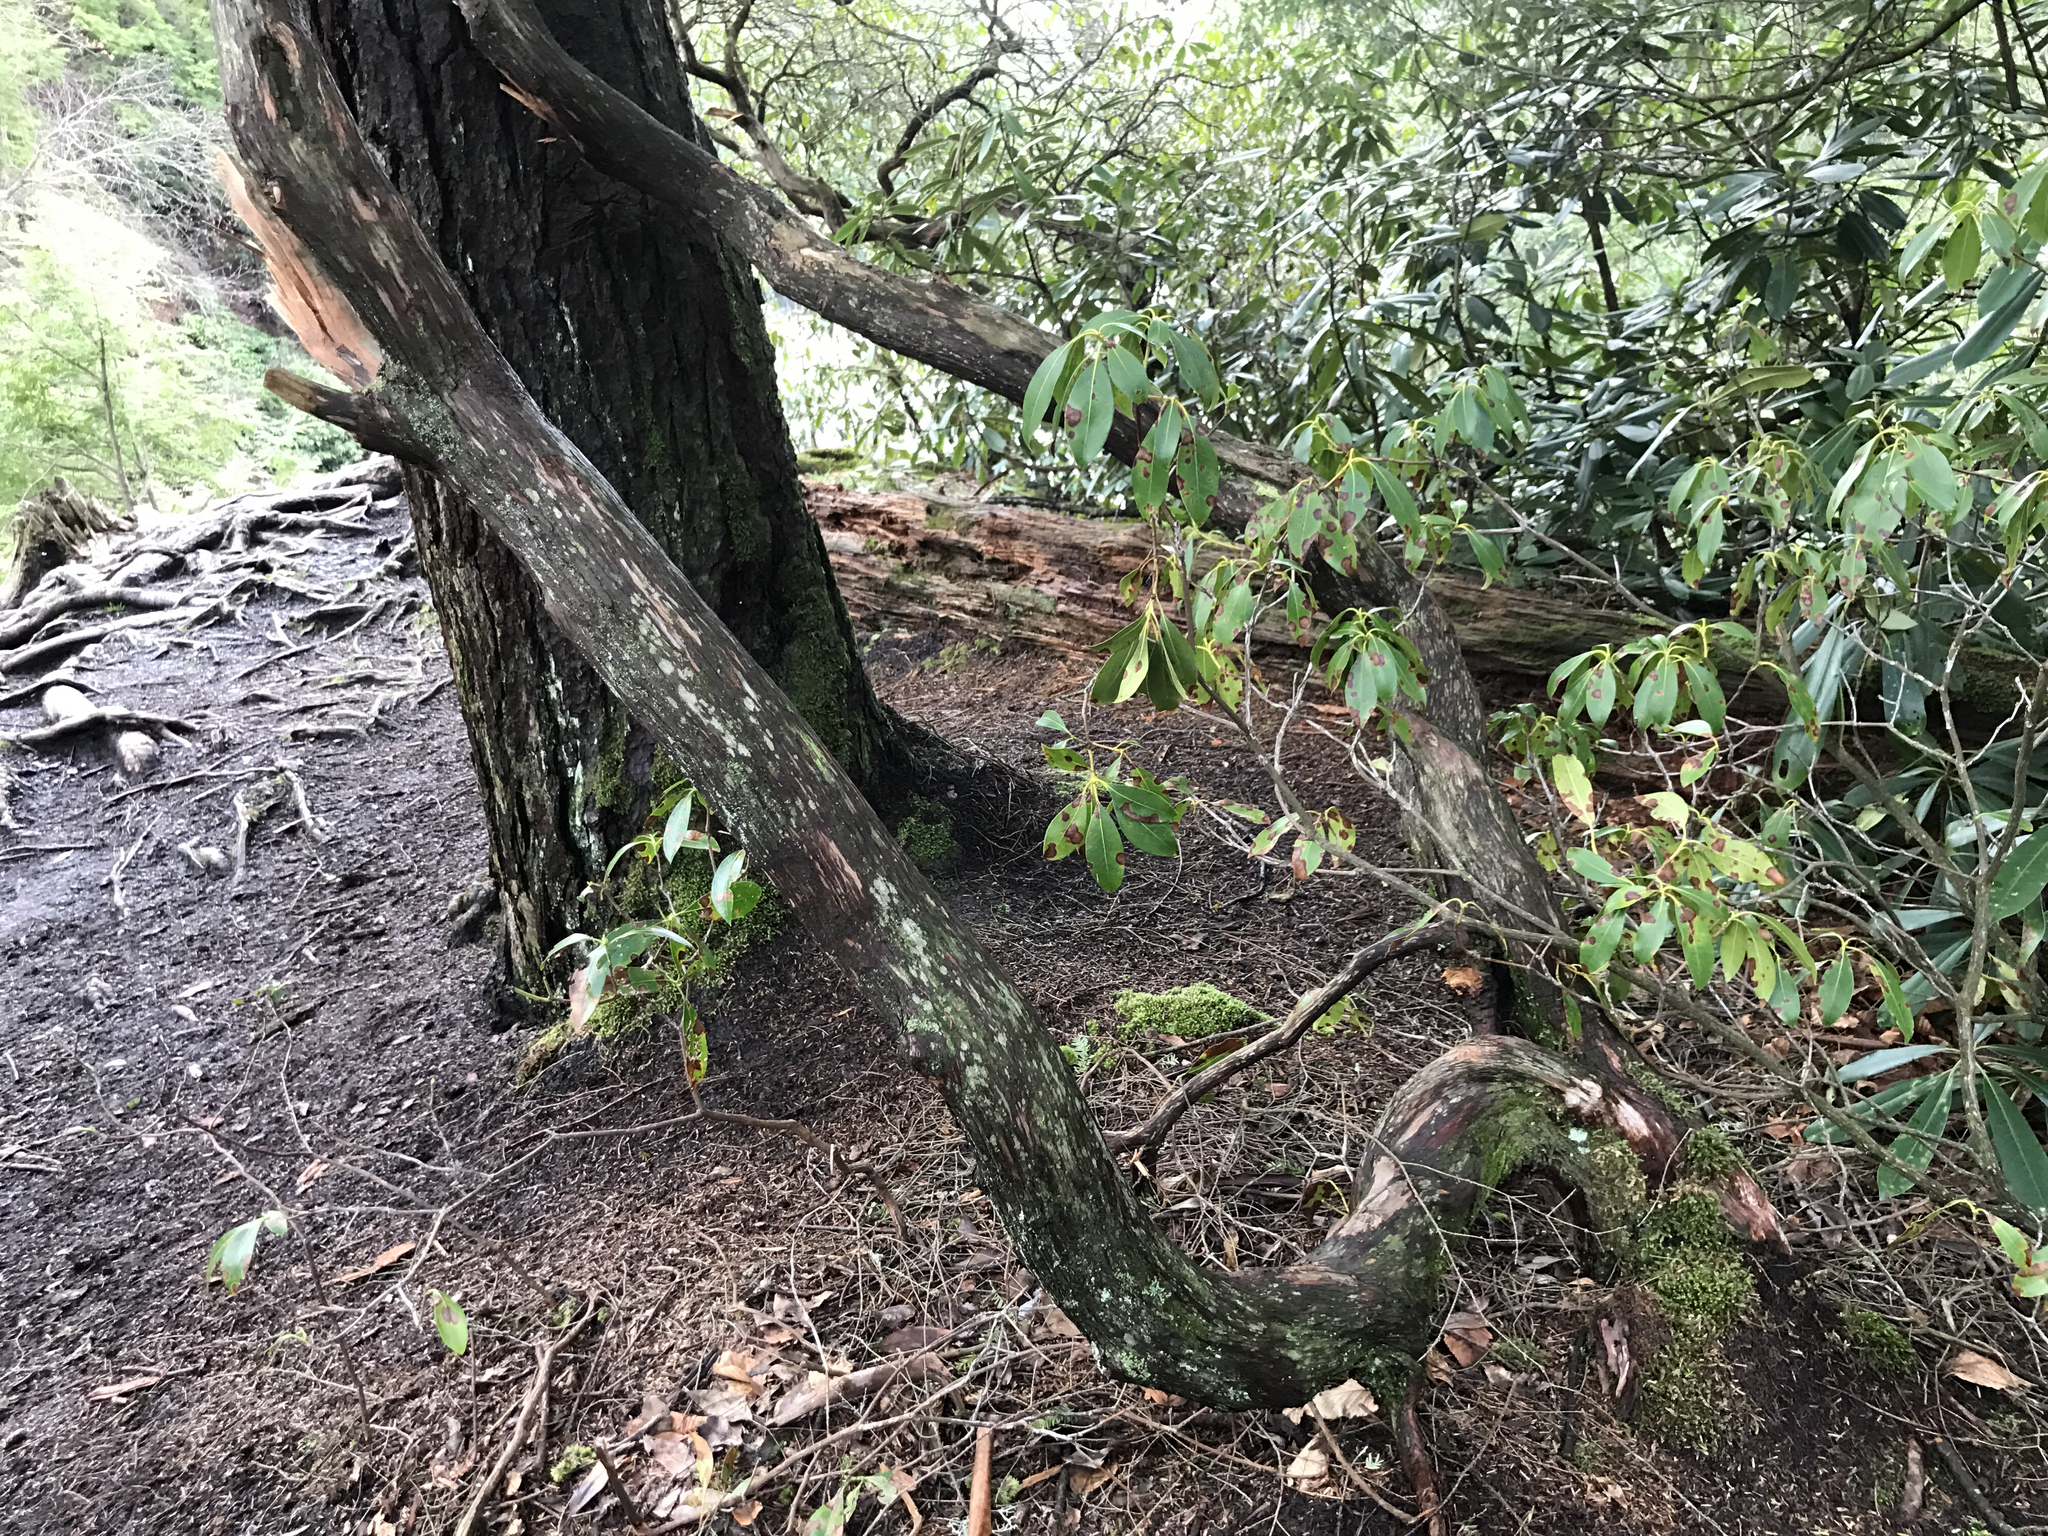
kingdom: Plantae
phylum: Tracheophyta
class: Magnoliopsida
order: Ericales
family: Ericaceae
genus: Kalmia
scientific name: Kalmia latifolia
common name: Mountain-laurel
